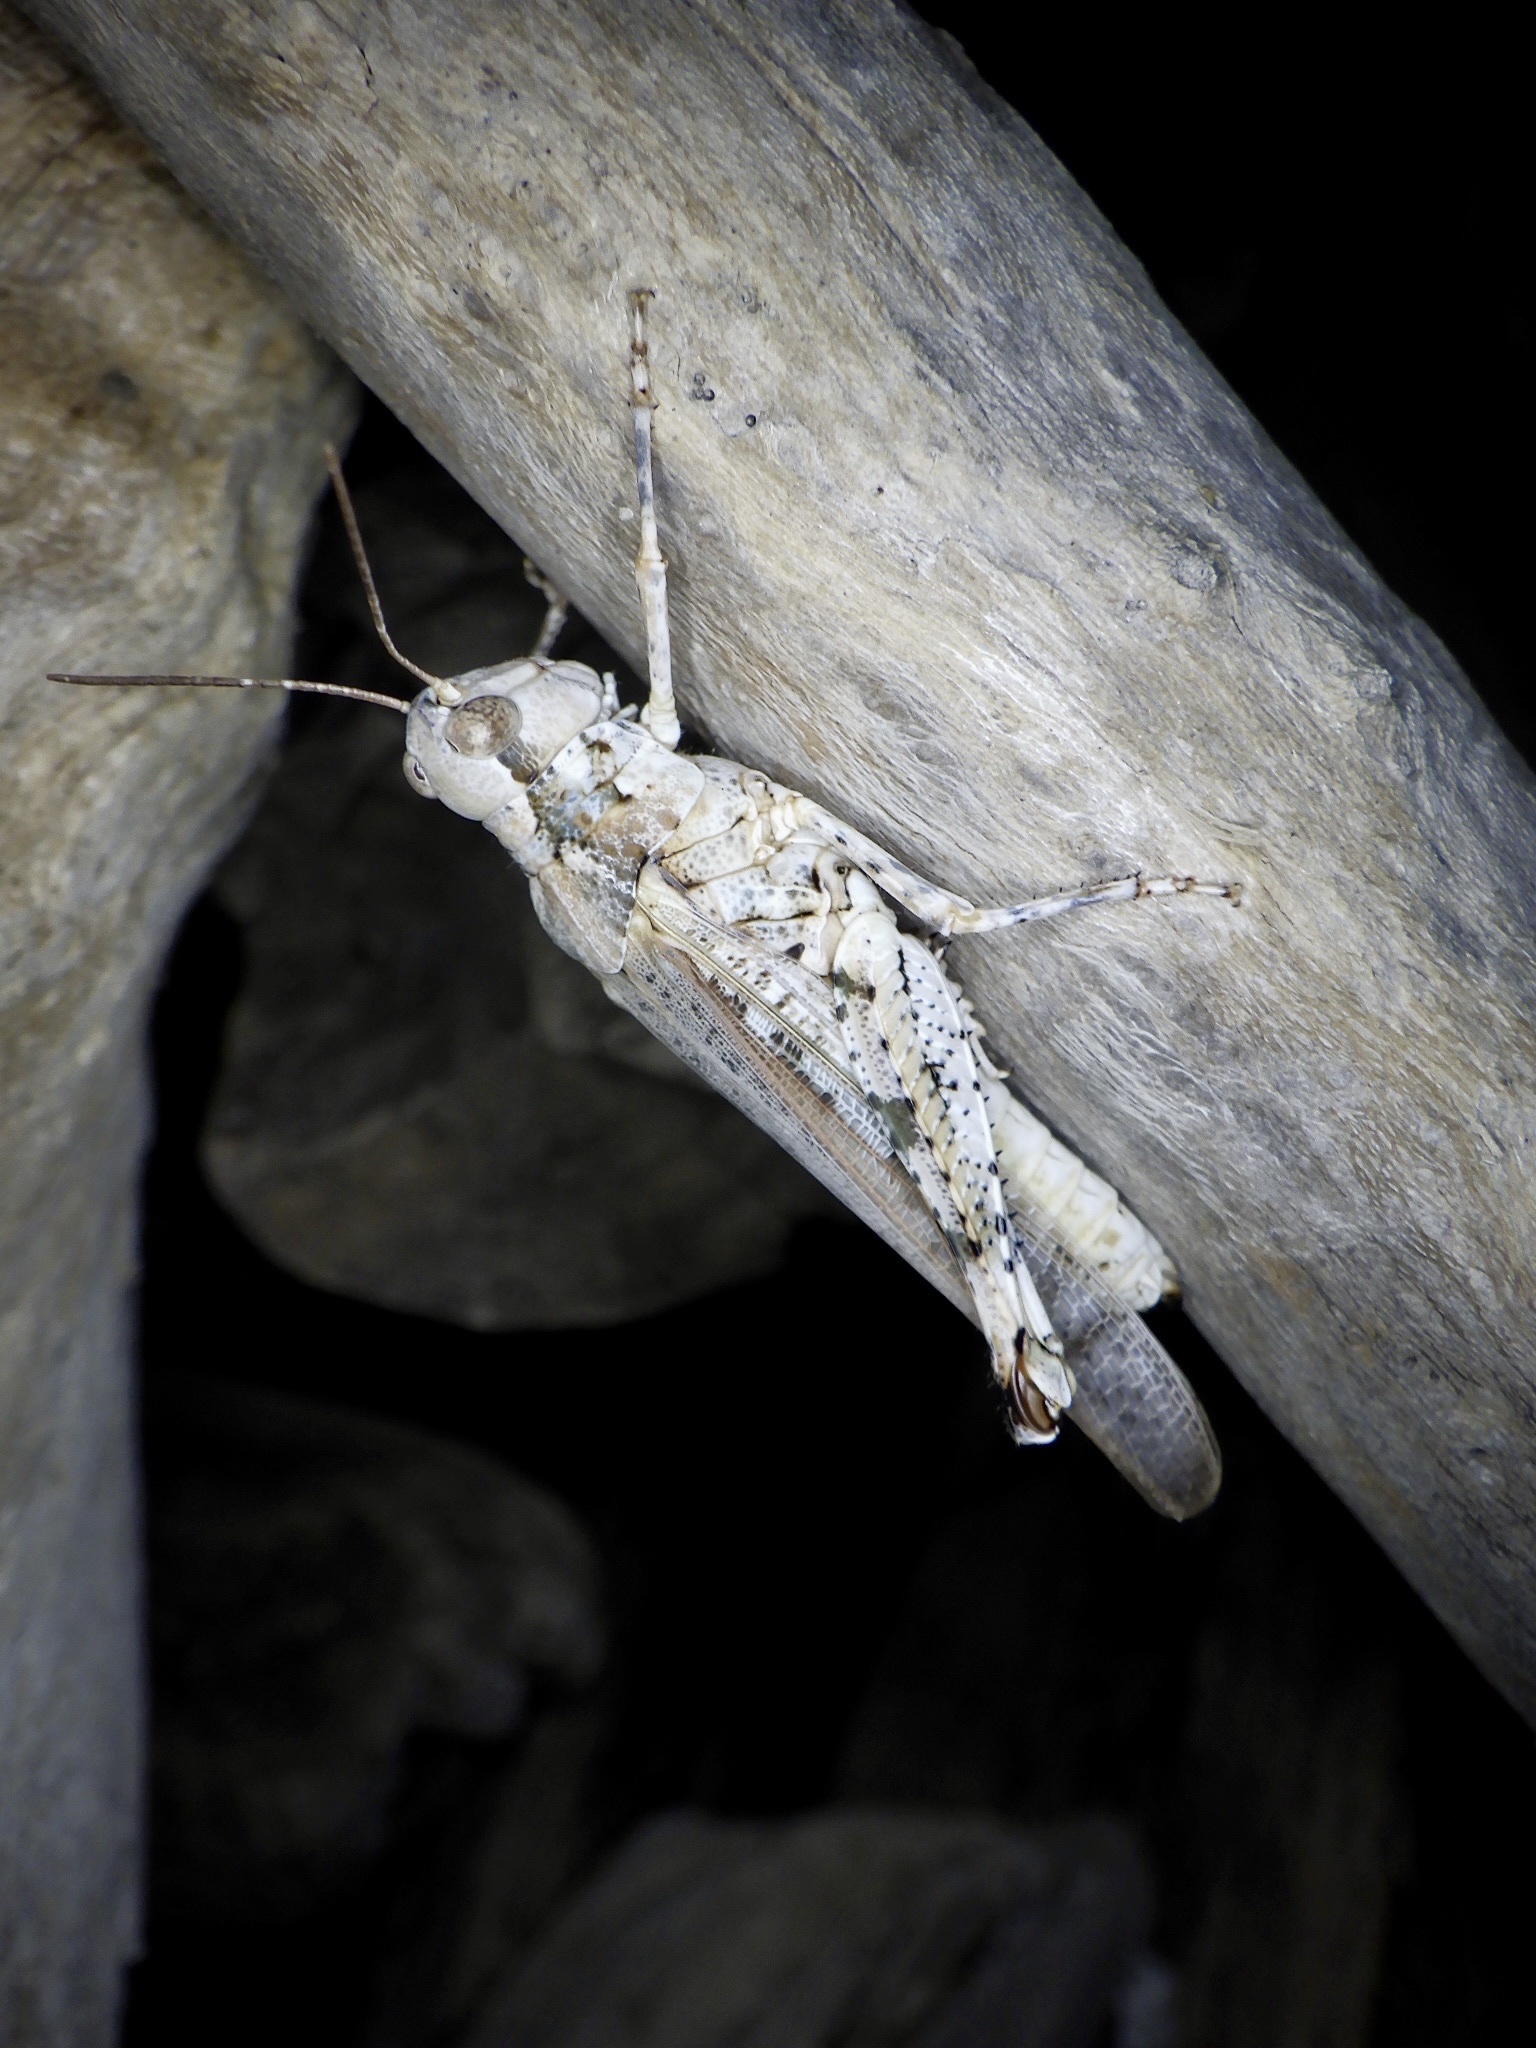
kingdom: Animalia
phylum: Arthropoda
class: Insecta
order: Orthoptera
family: Acrididae
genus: Epacromius
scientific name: Epacromius japonicus
